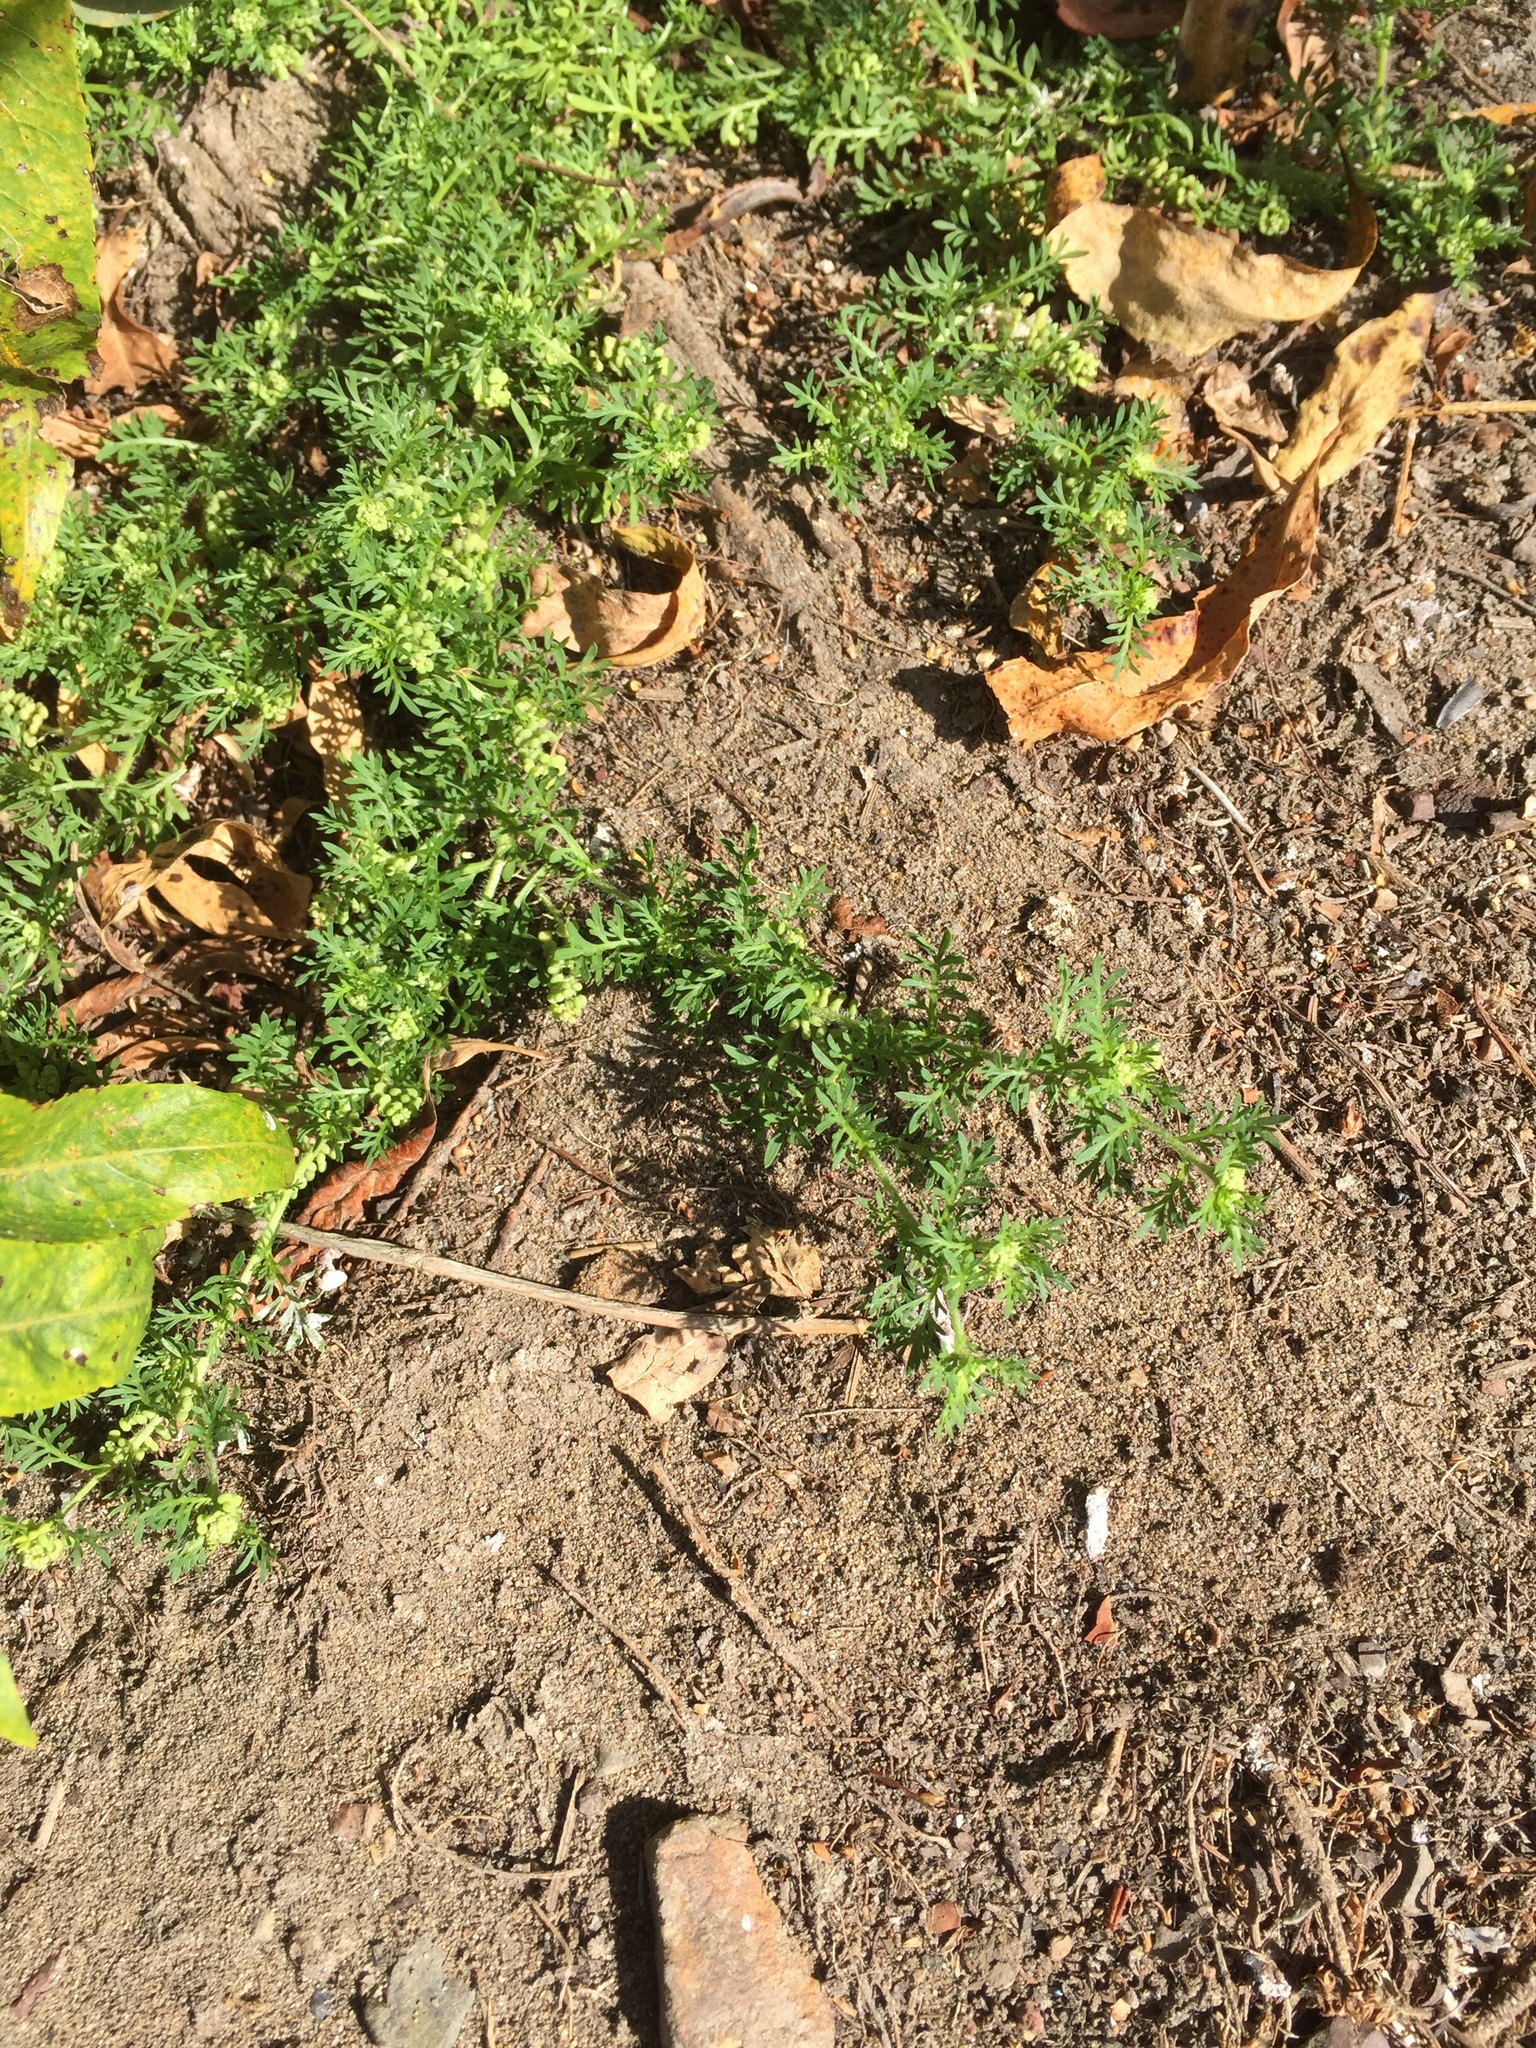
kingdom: Plantae
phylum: Tracheophyta
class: Magnoliopsida
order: Brassicales
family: Brassicaceae
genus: Lepidium
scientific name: Lepidium didymum
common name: Lesser swinecress
